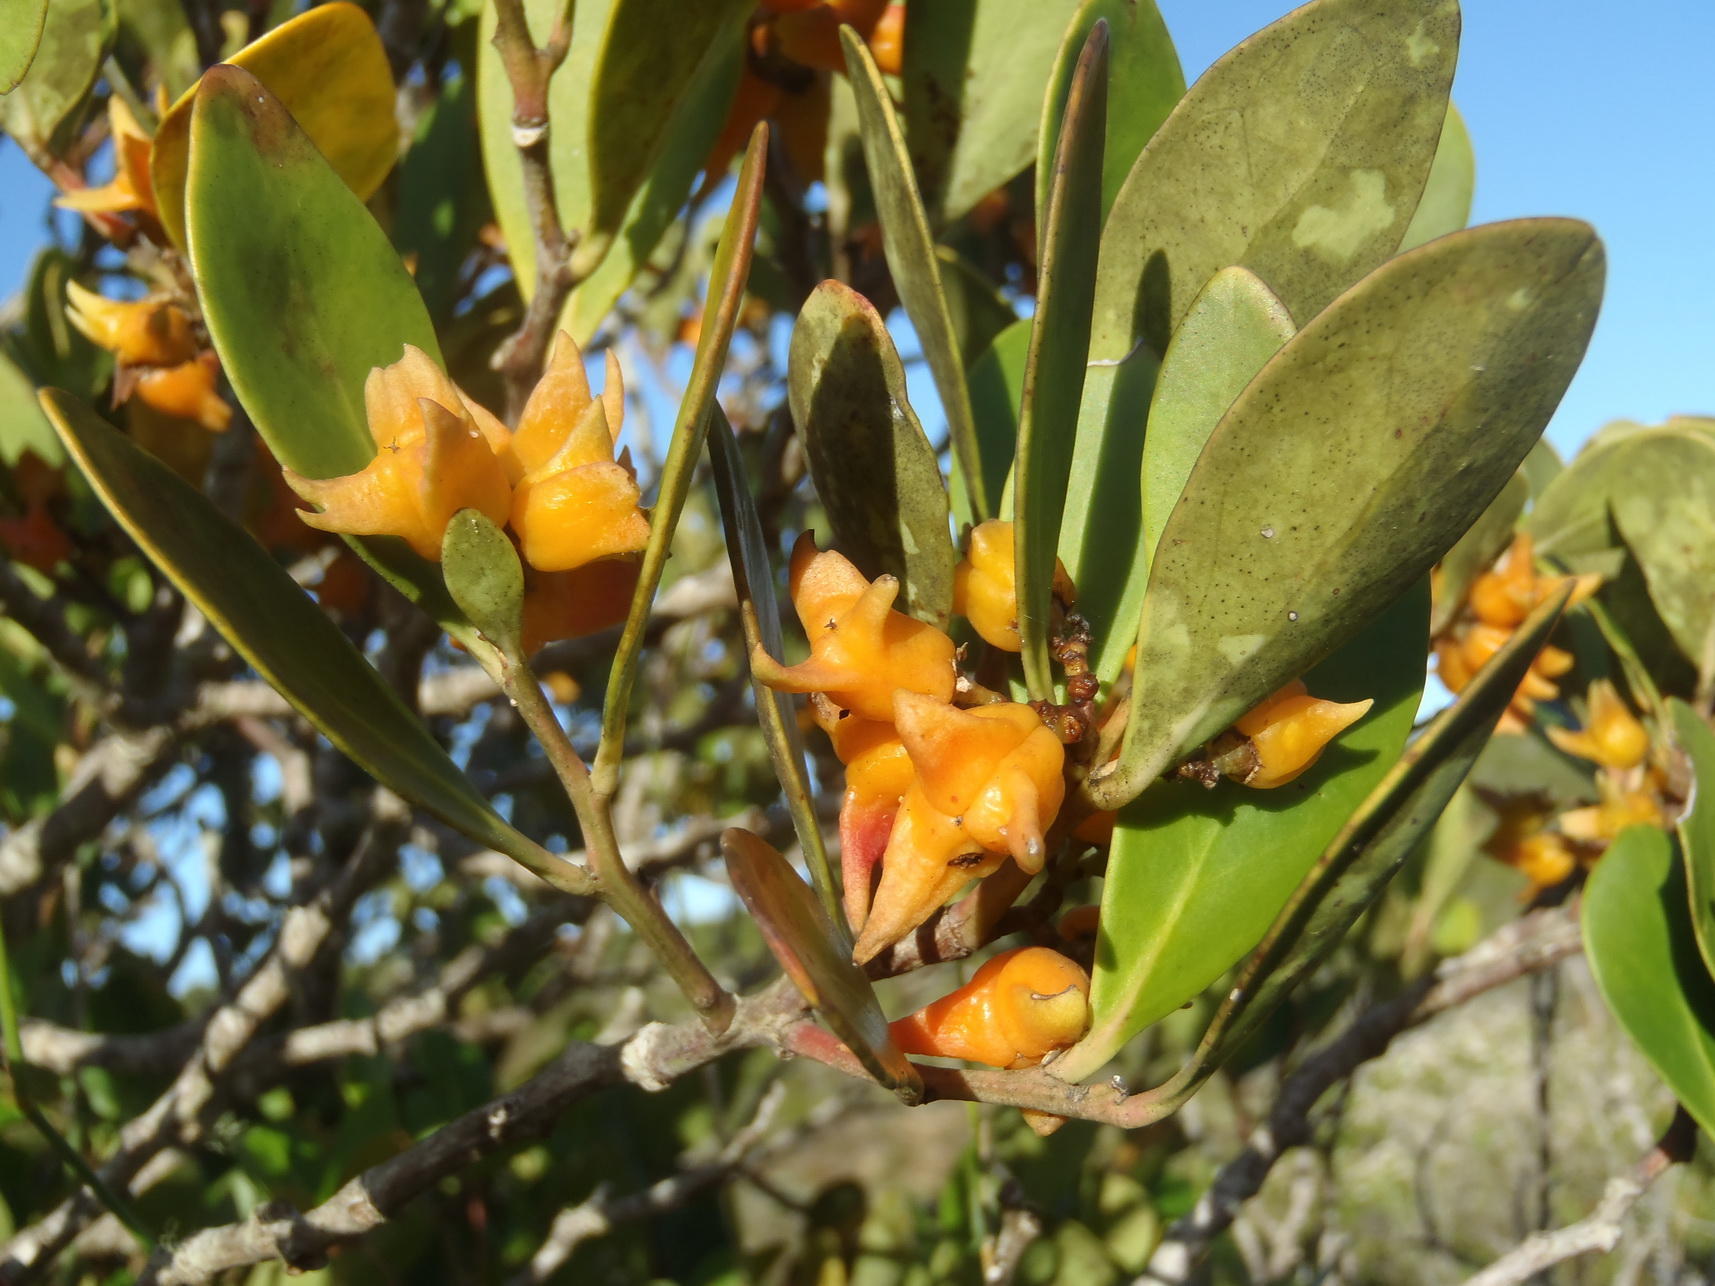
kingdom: Plantae
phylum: Tracheophyta
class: Magnoliopsida
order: Celastrales
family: Celastraceae
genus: Pterocelastrus
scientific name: Pterocelastrus tricuspidatus
